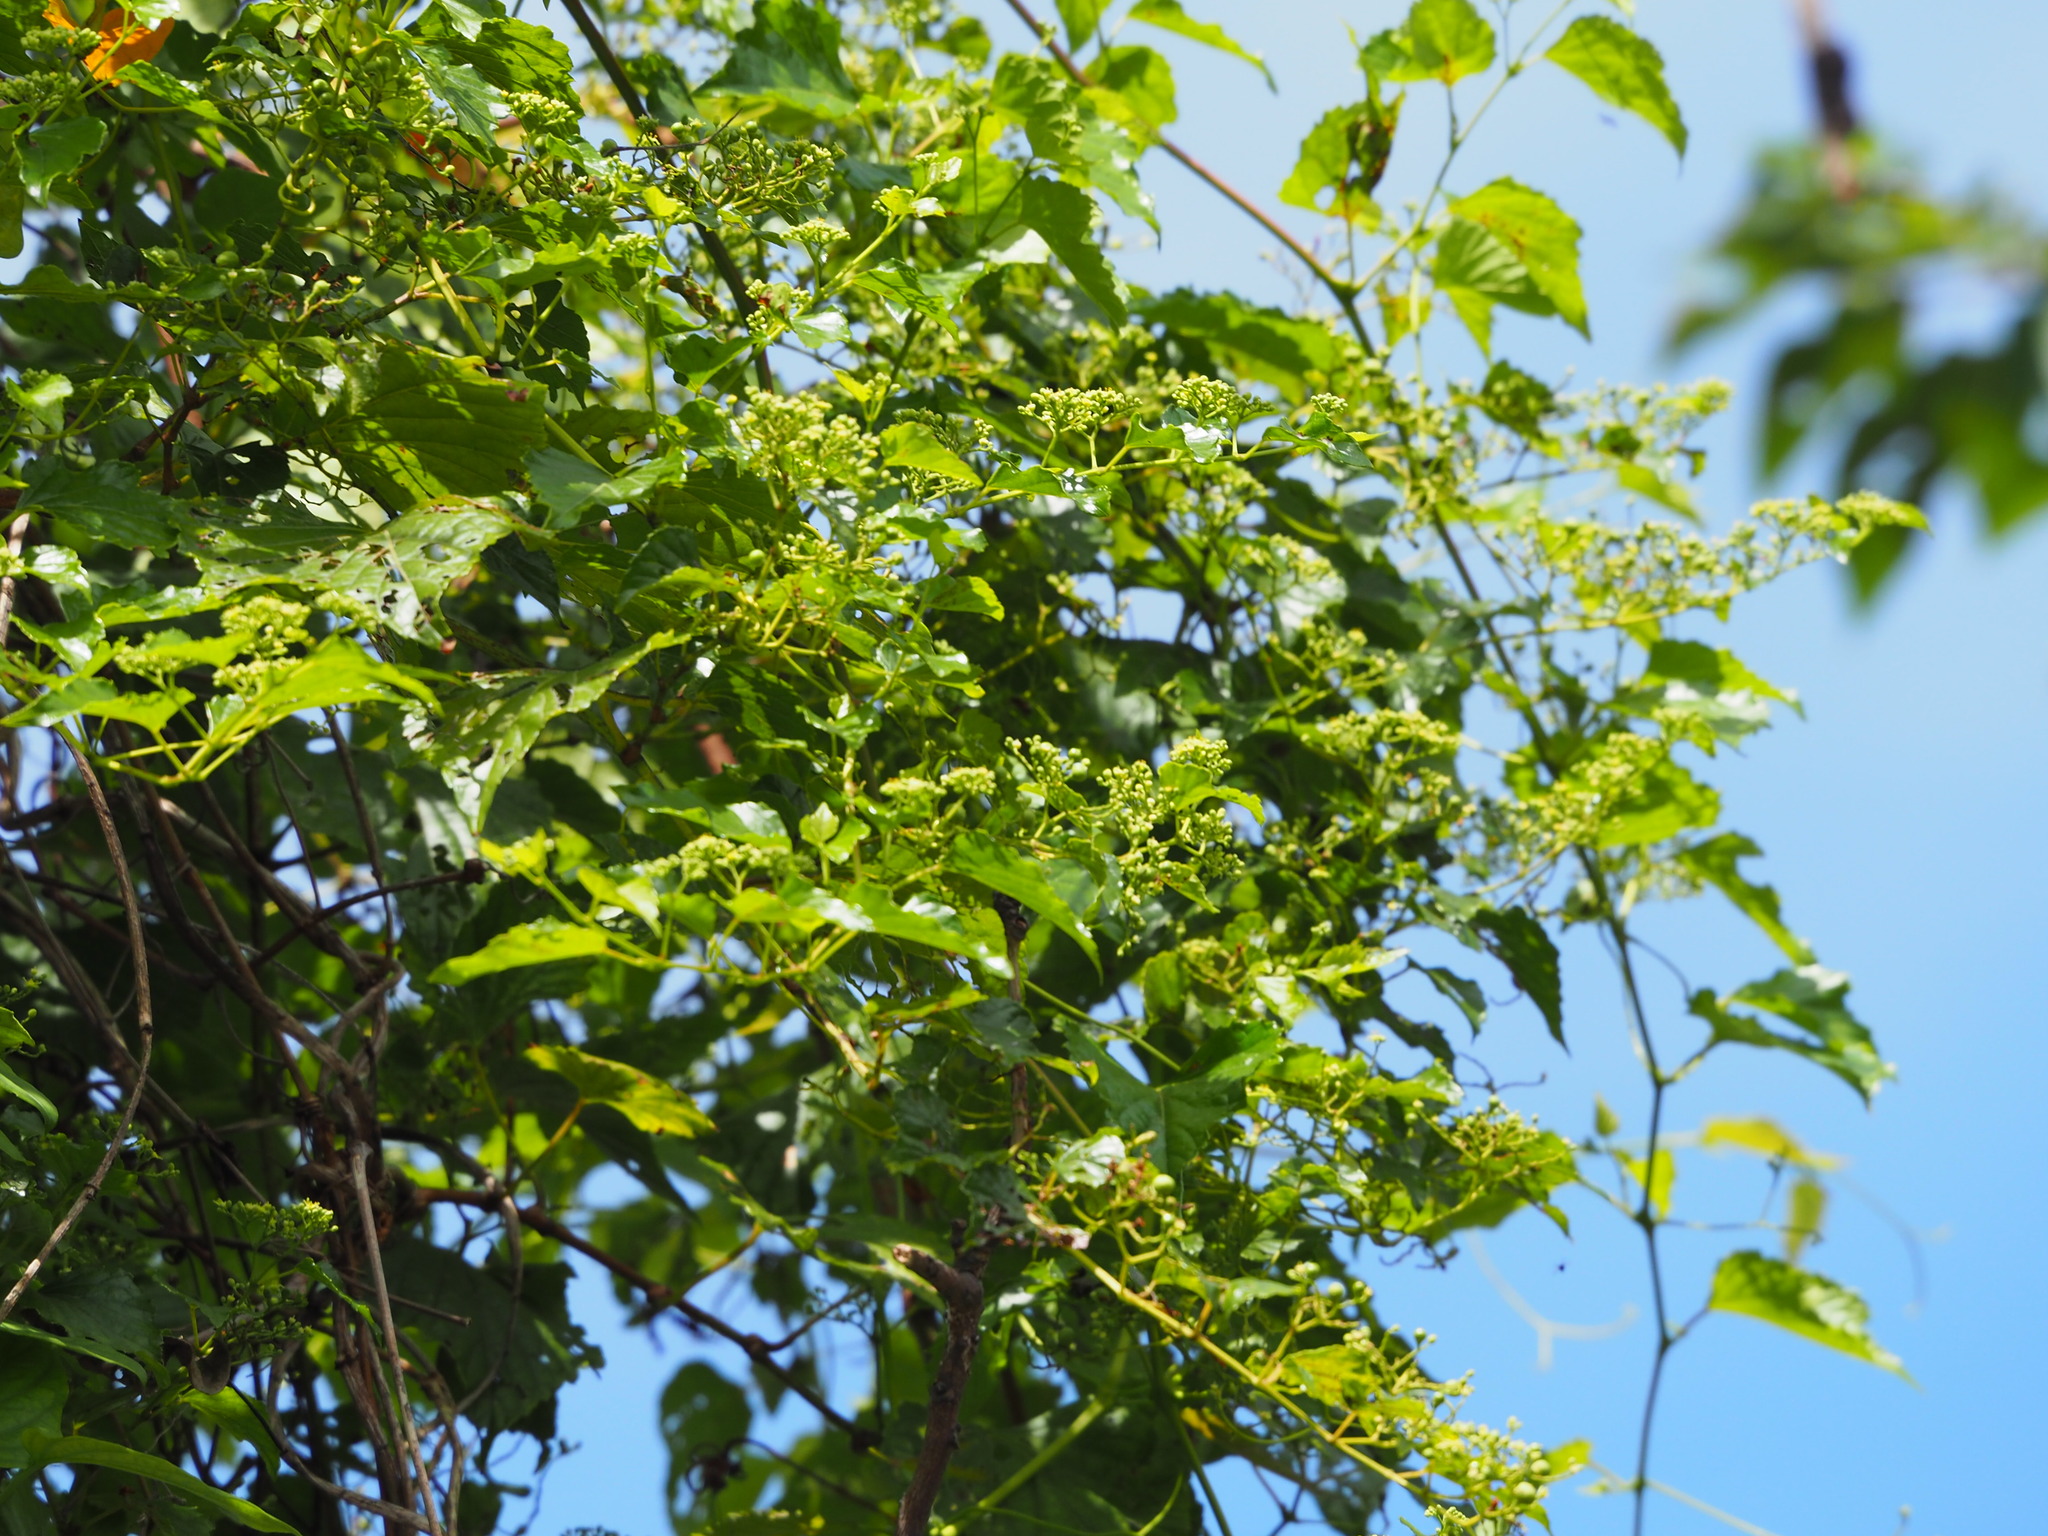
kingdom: Plantae
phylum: Tracheophyta
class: Magnoliopsida
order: Vitales
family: Vitaceae
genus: Ampelopsis
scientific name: Ampelopsis glandulosa
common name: Amur peppervine
